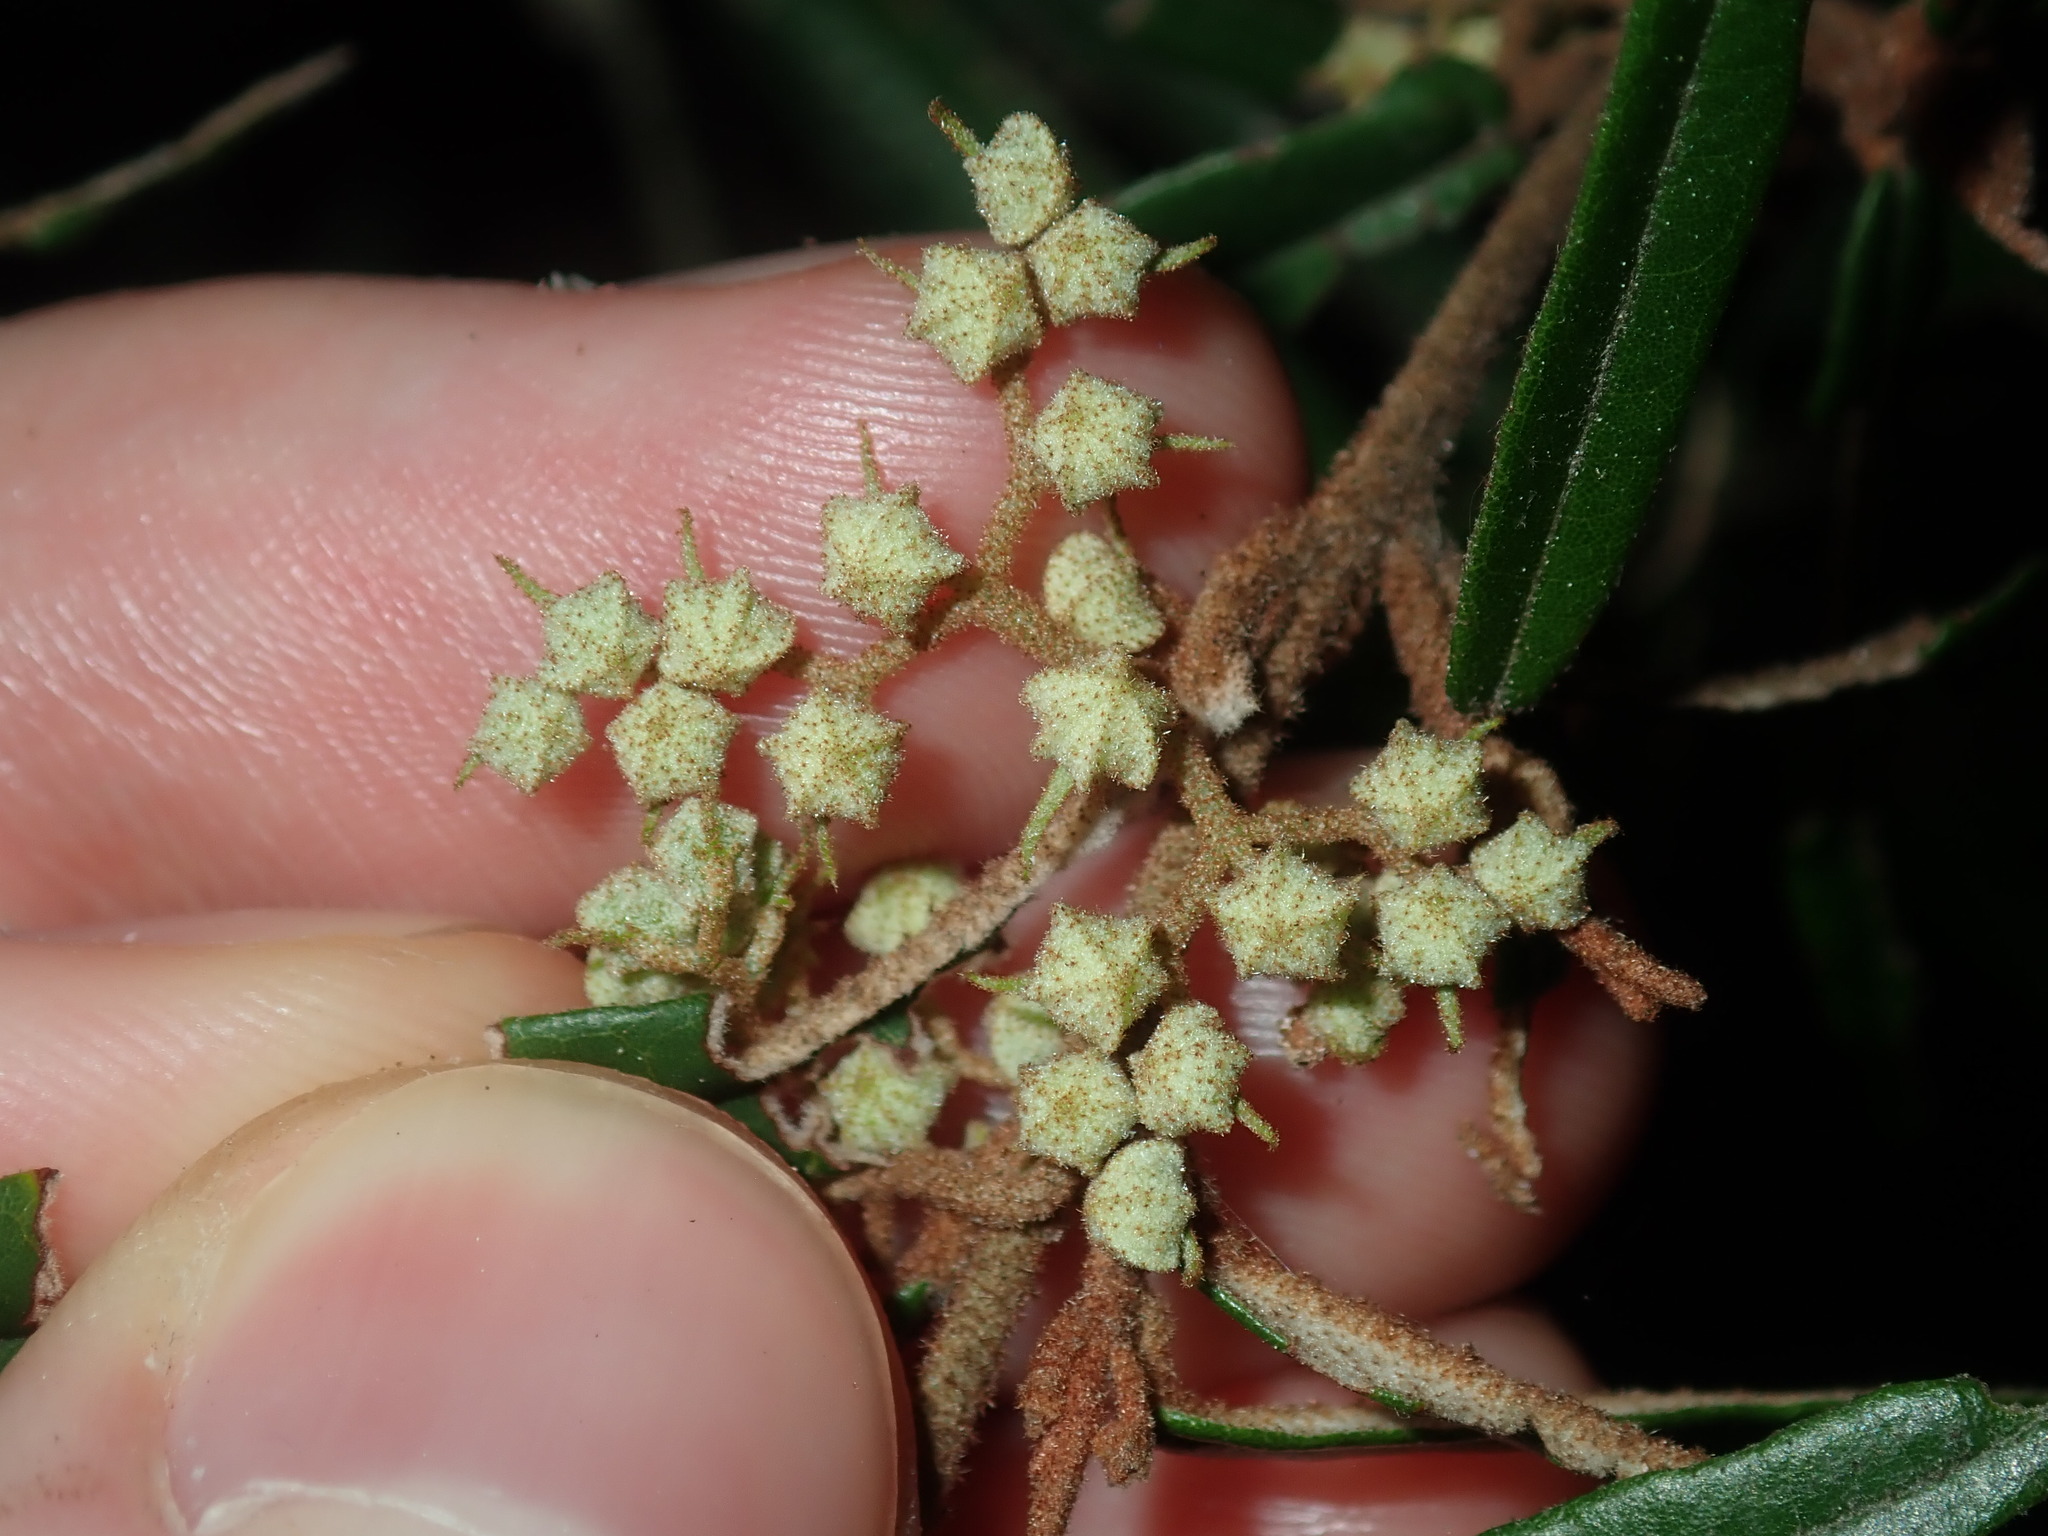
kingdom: Plantae
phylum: Tracheophyta
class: Magnoliopsida
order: Malvales
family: Malvaceae
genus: Lasiopetalum
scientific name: Lasiopetalum parviflorum
